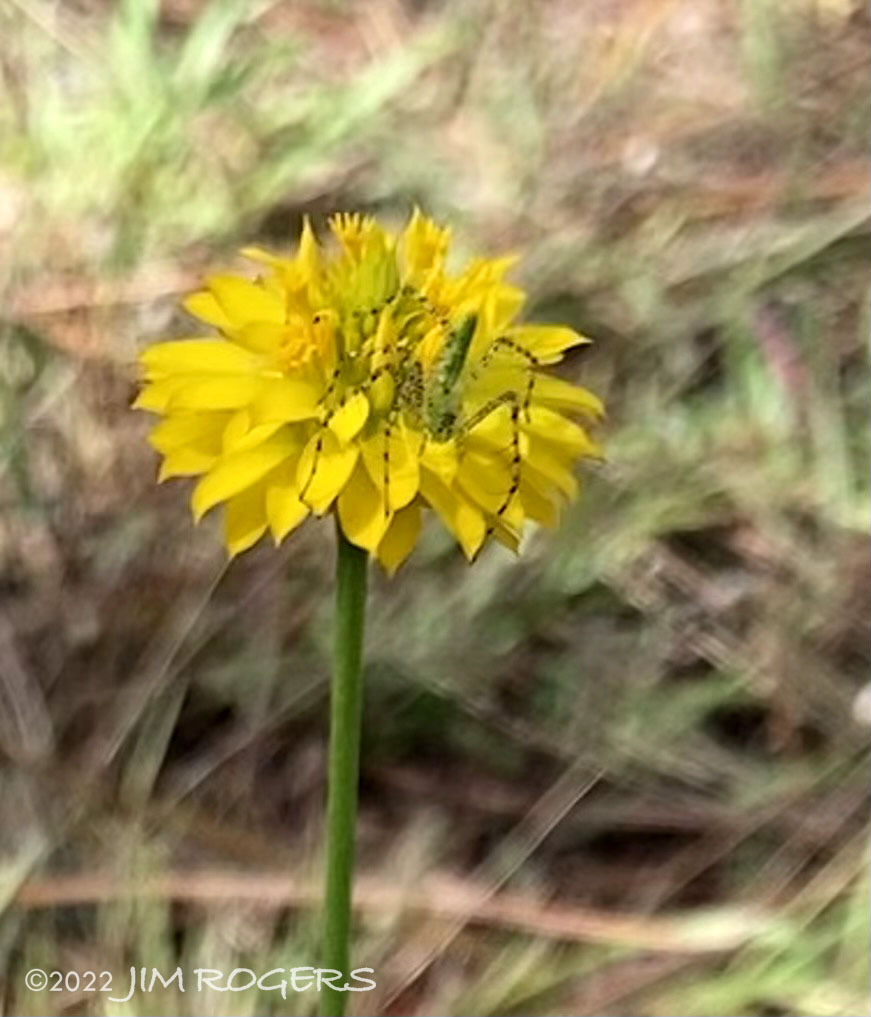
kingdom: Animalia
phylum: Arthropoda
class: Arachnida
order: Araneae
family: Oxyopidae
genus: Peucetia
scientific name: Peucetia viridans
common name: Lynx spiders
